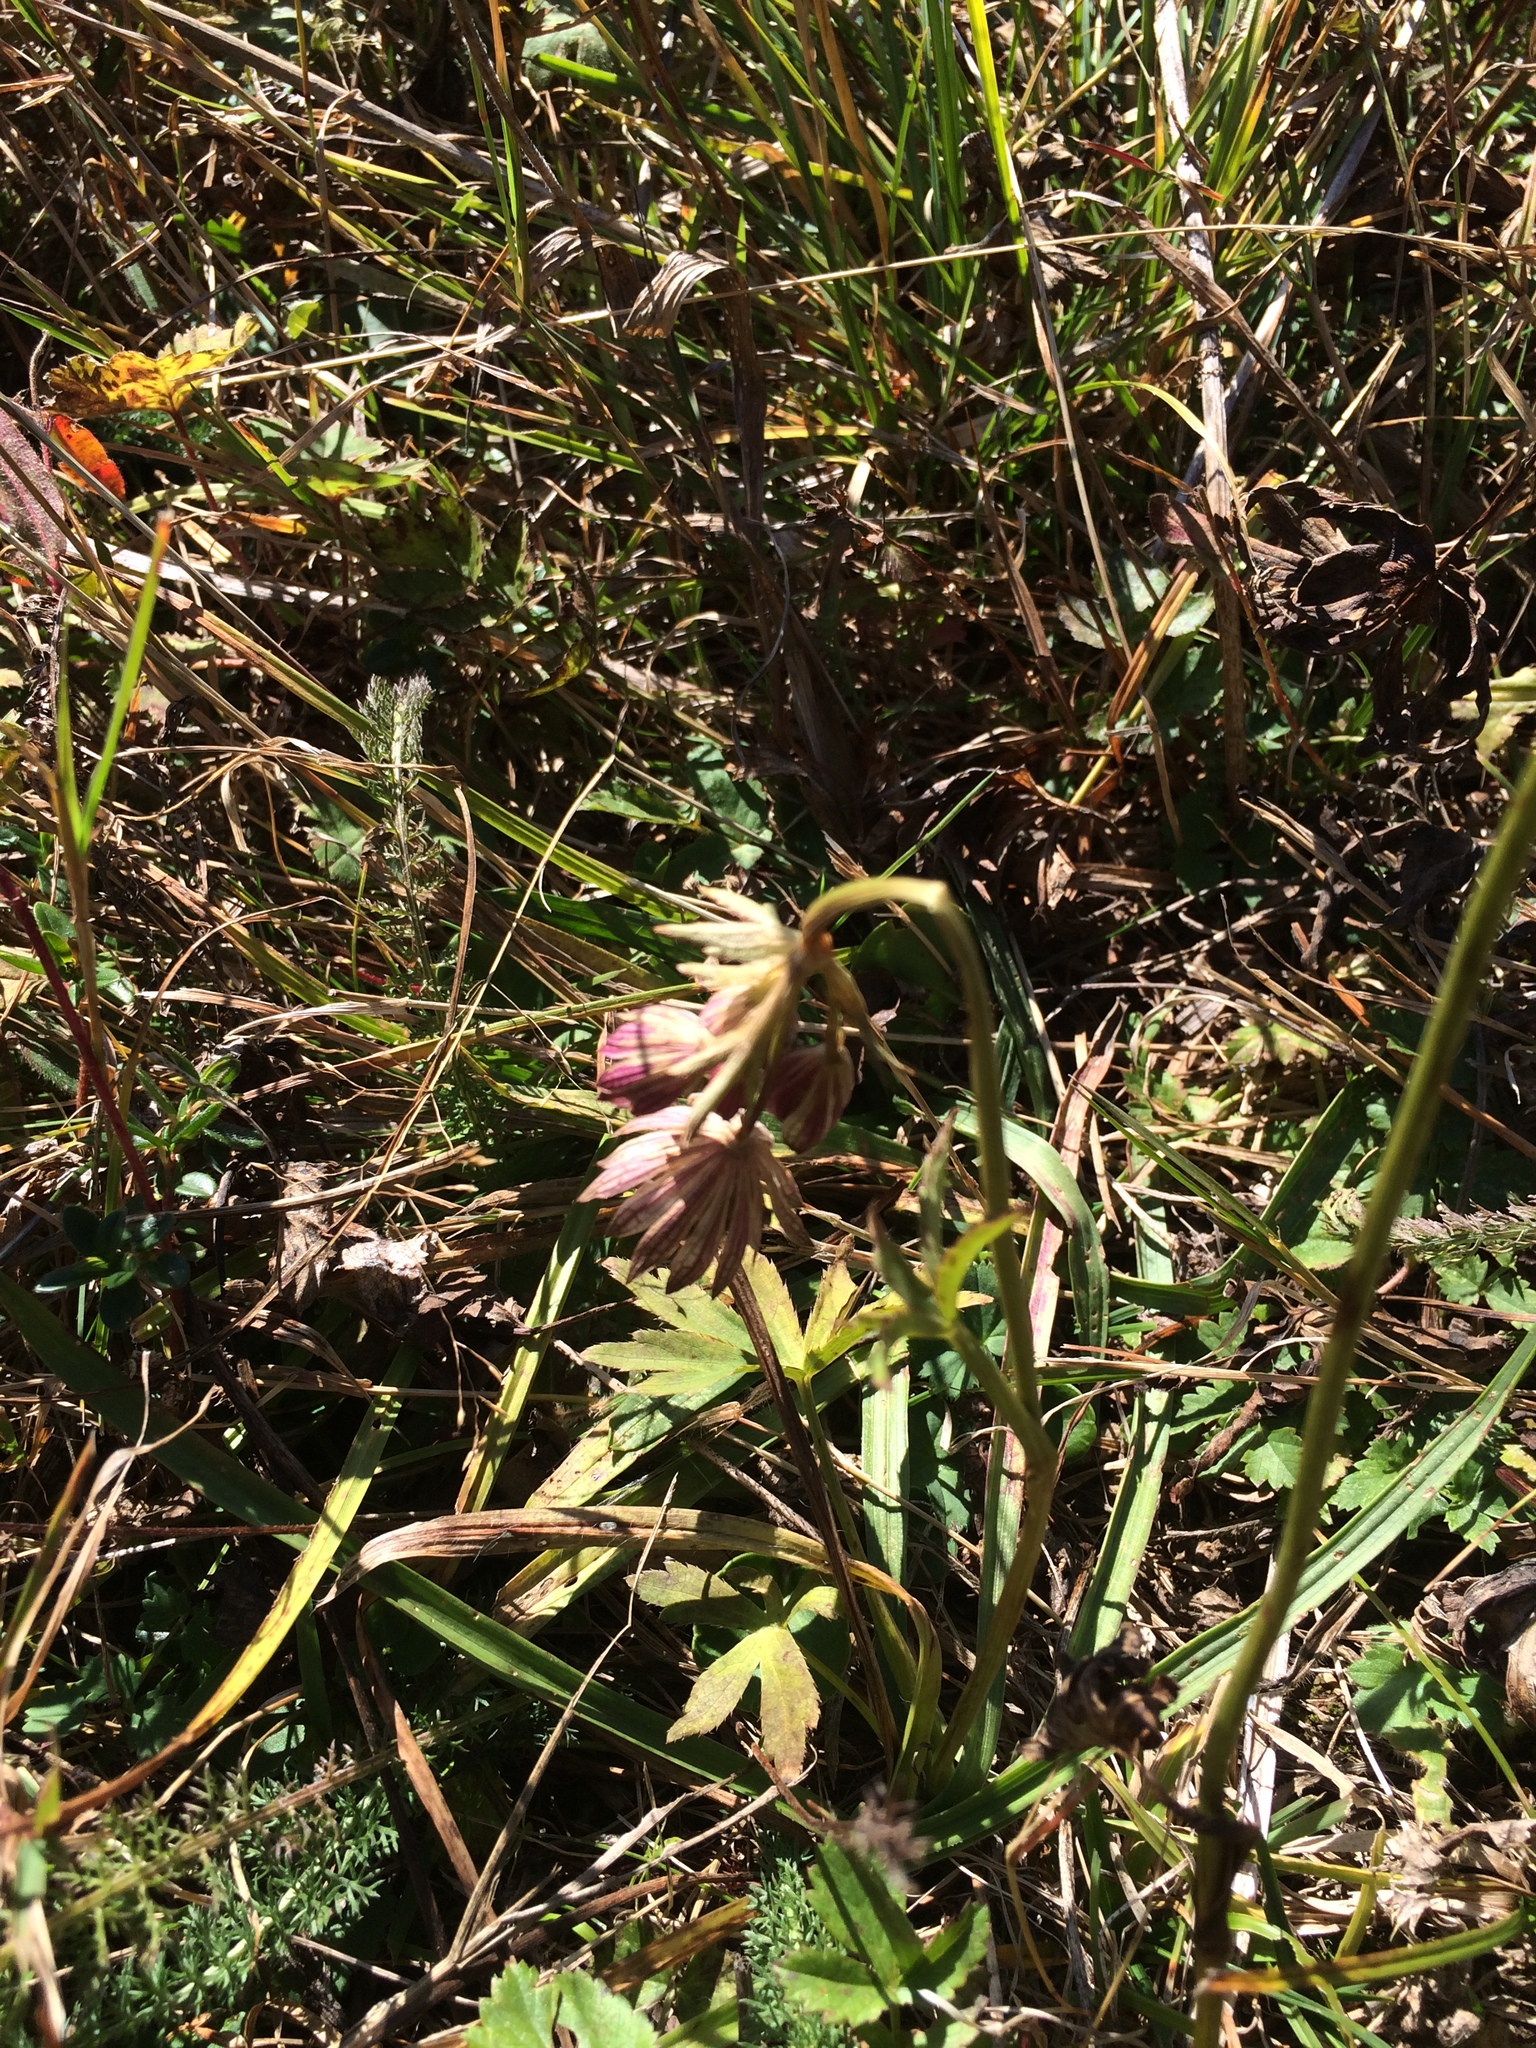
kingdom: Plantae
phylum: Tracheophyta
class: Magnoliopsida
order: Apiales
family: Apiaceae
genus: Astrantia
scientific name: Astrantia major
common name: Greater masterwort
